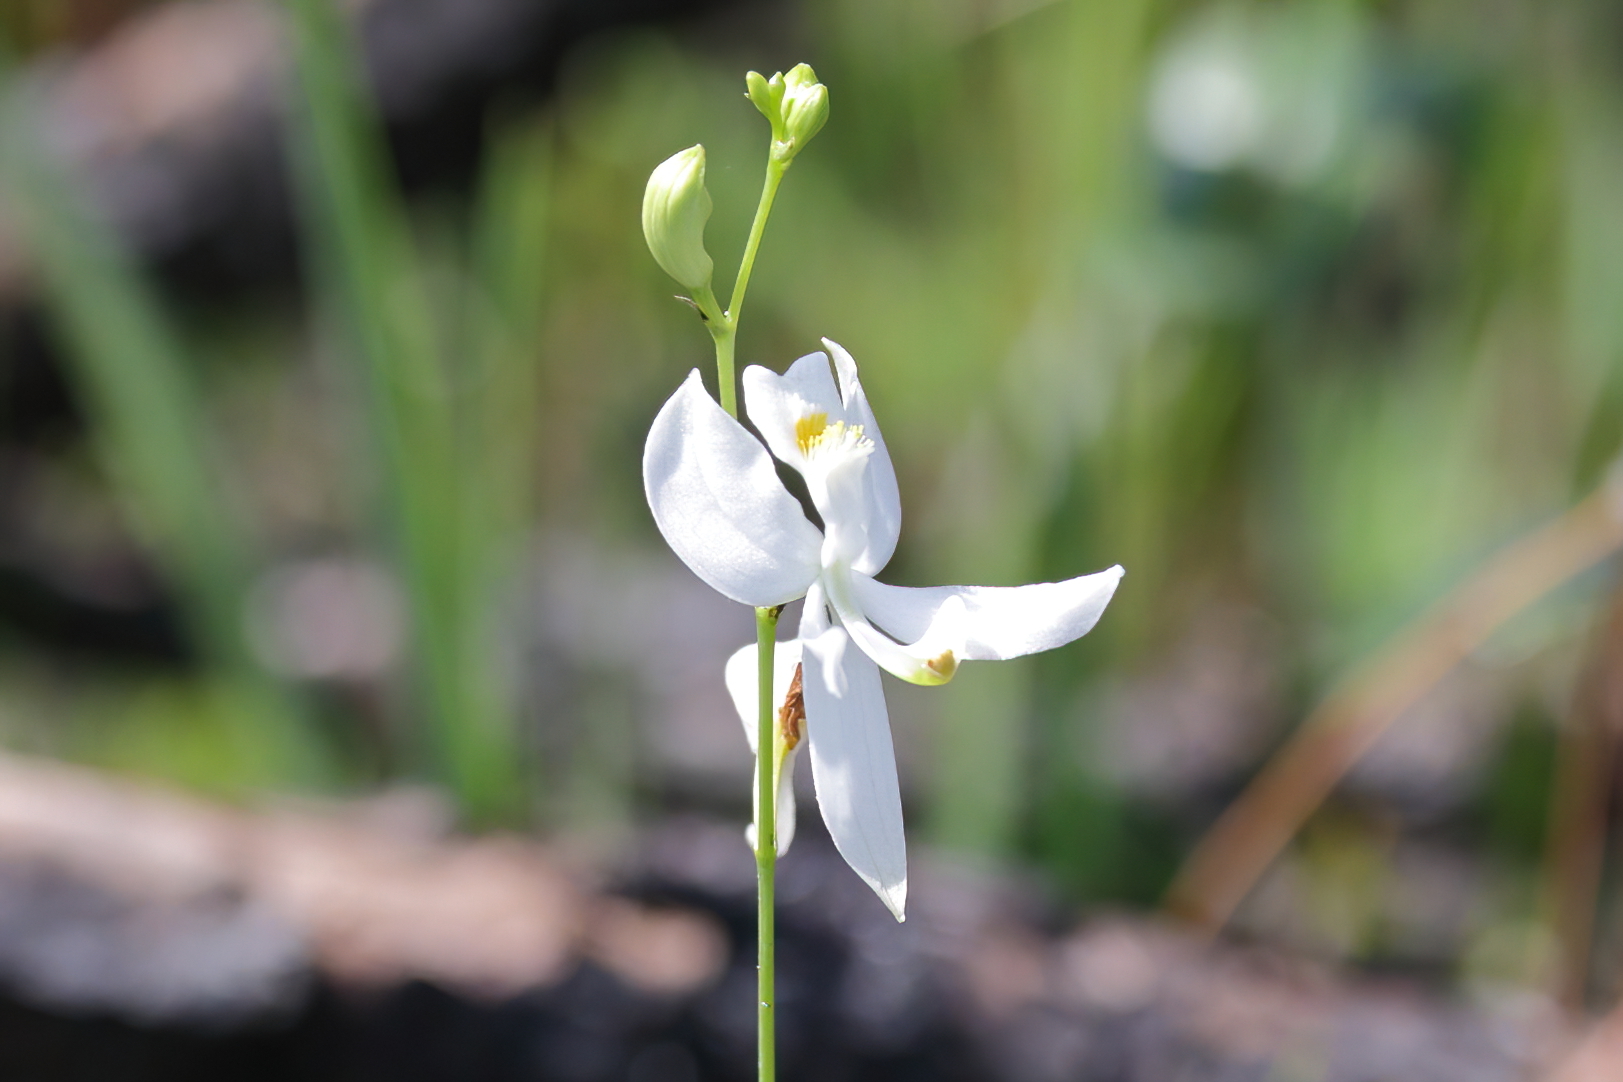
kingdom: Plantae
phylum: Tracheophyta
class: Liliopsida
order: Asparagales
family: Orchidaceae
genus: Calopogon
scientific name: Calopogon pallidus
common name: Pale grasspink
